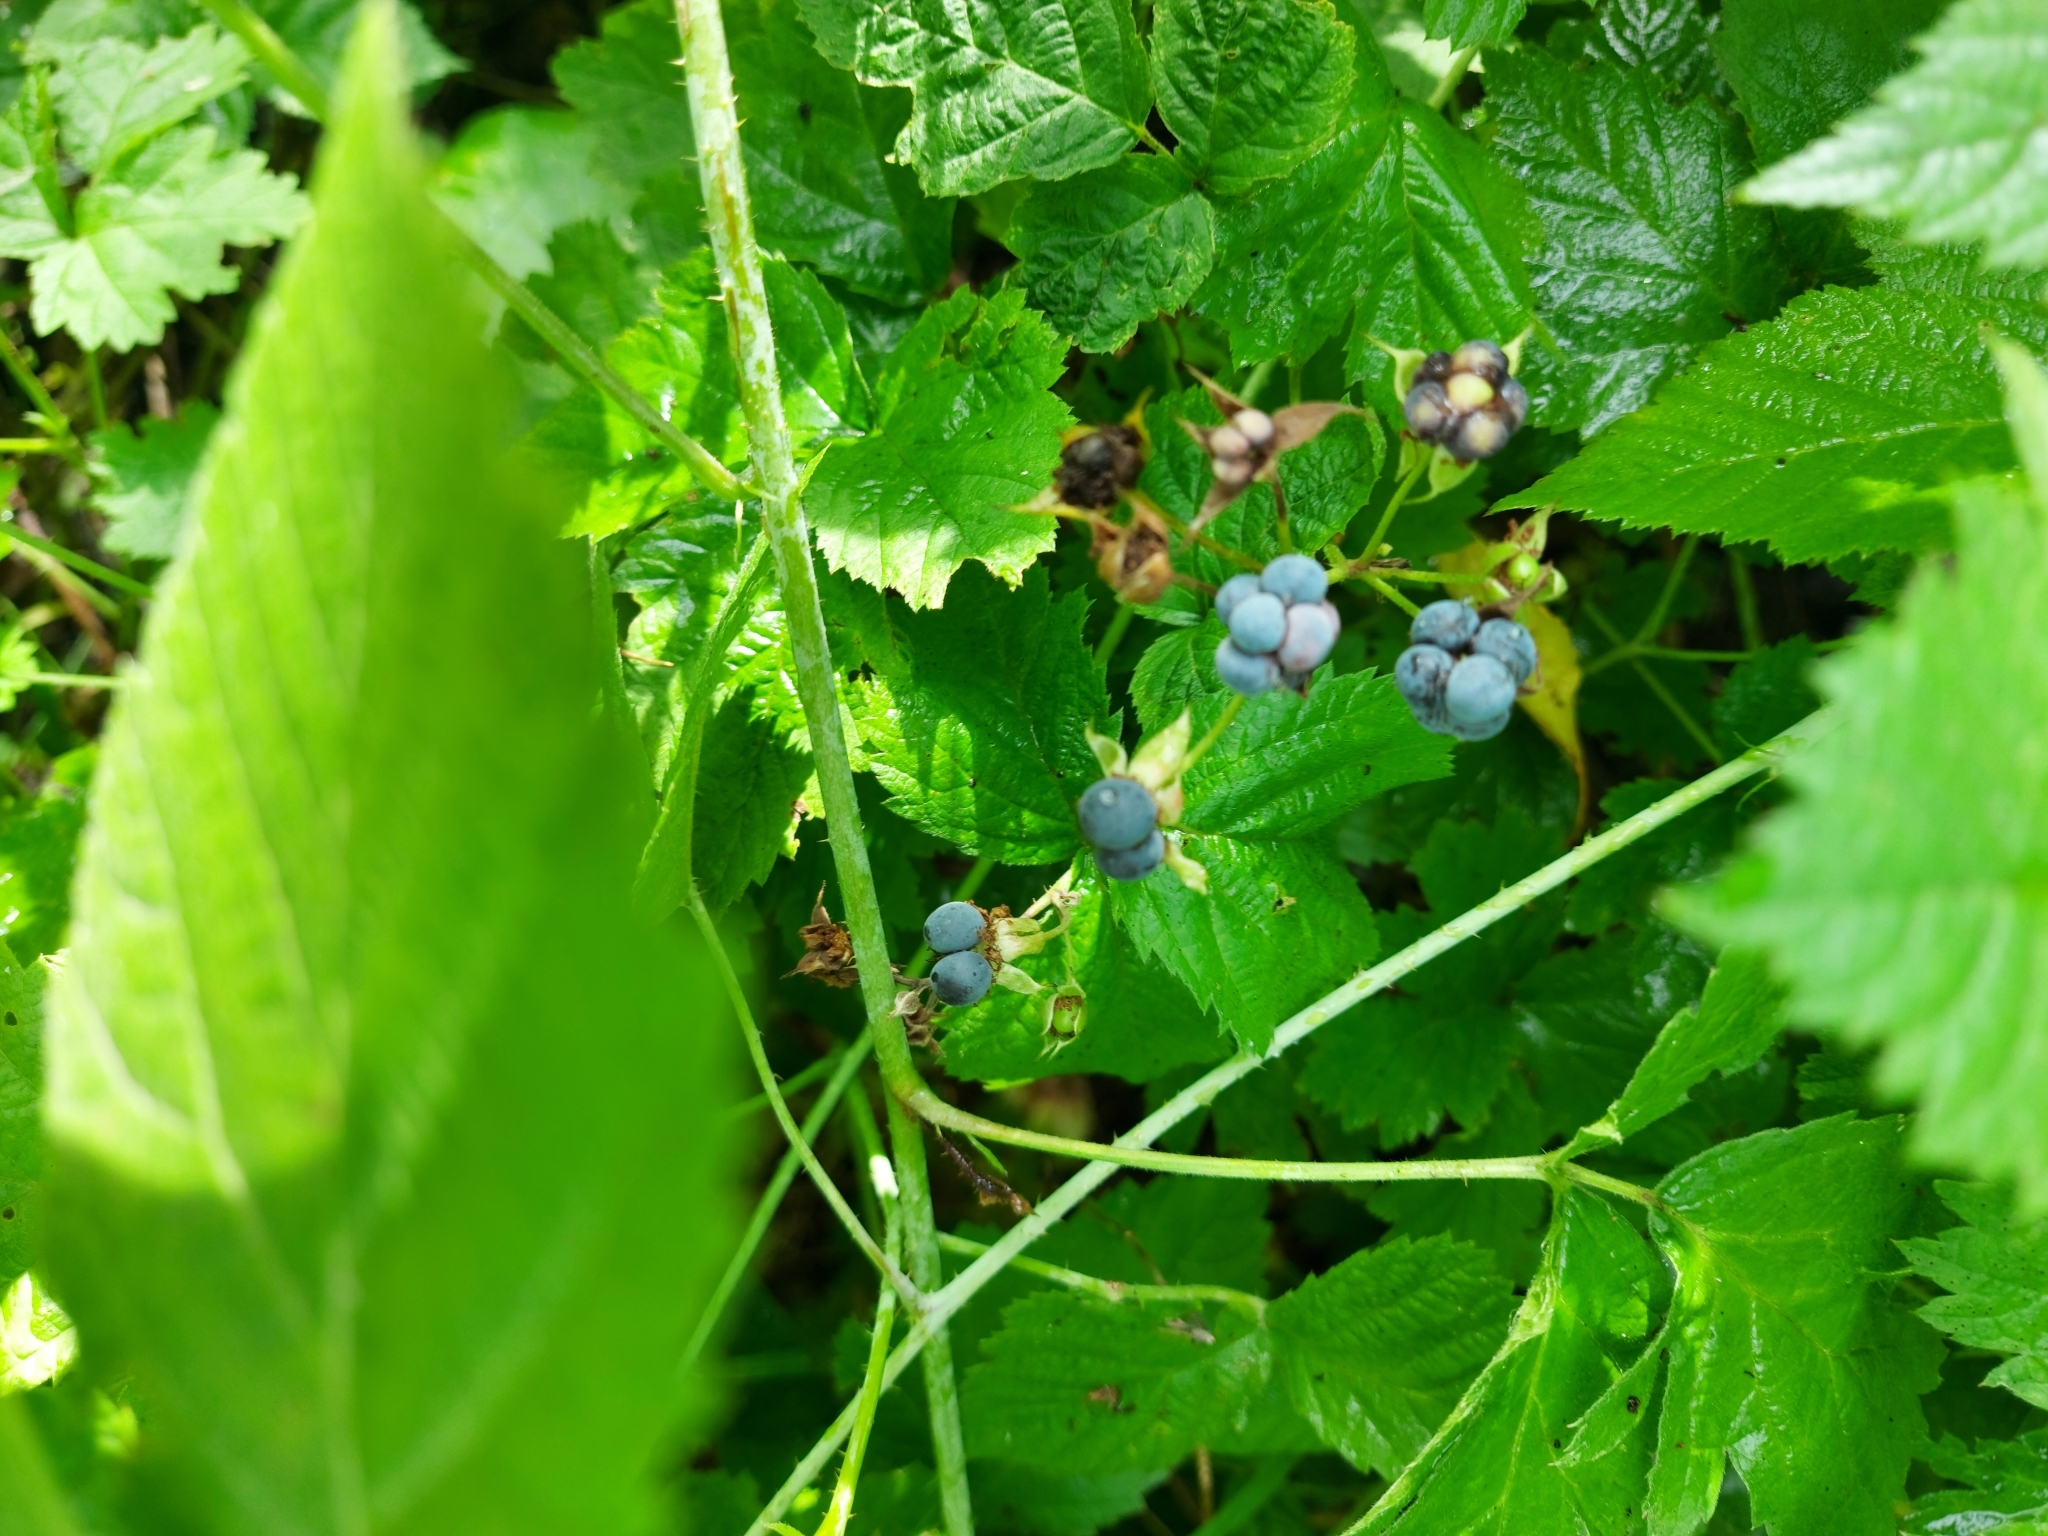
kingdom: Plantae
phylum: Tracheophyta
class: Magnoliopsida
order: Rosales
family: Rosaceae
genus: Rubus
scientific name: Rubus caesius
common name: Dewberry
